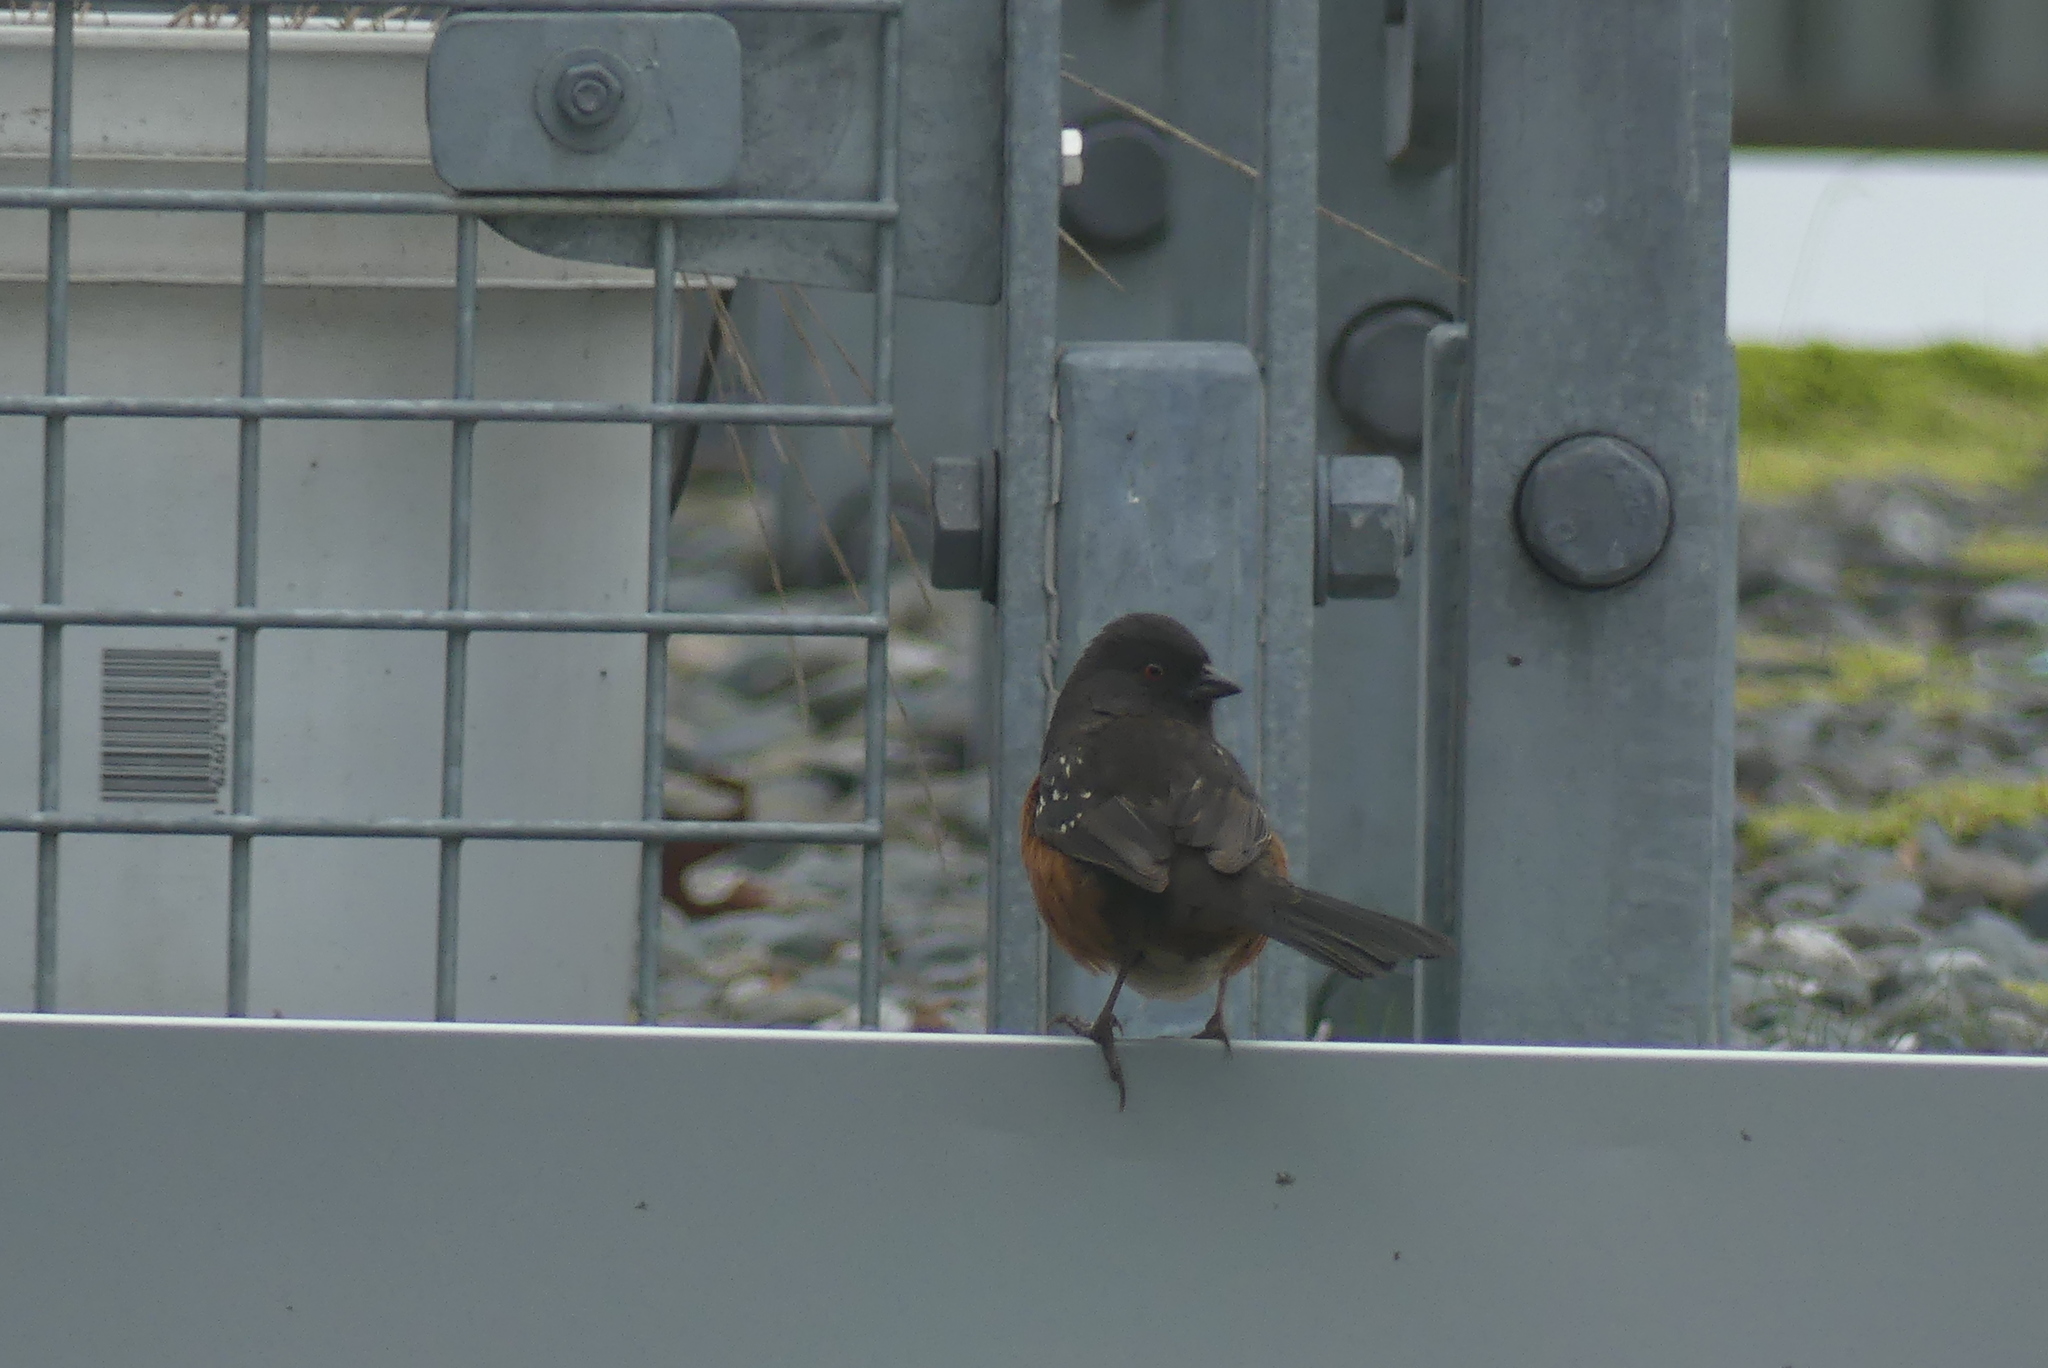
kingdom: Animalia
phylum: Chordata
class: Aves
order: Passeriformes
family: Passerellidae
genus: Pipilo
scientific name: Pipilo maculatus
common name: Spotted towhee
